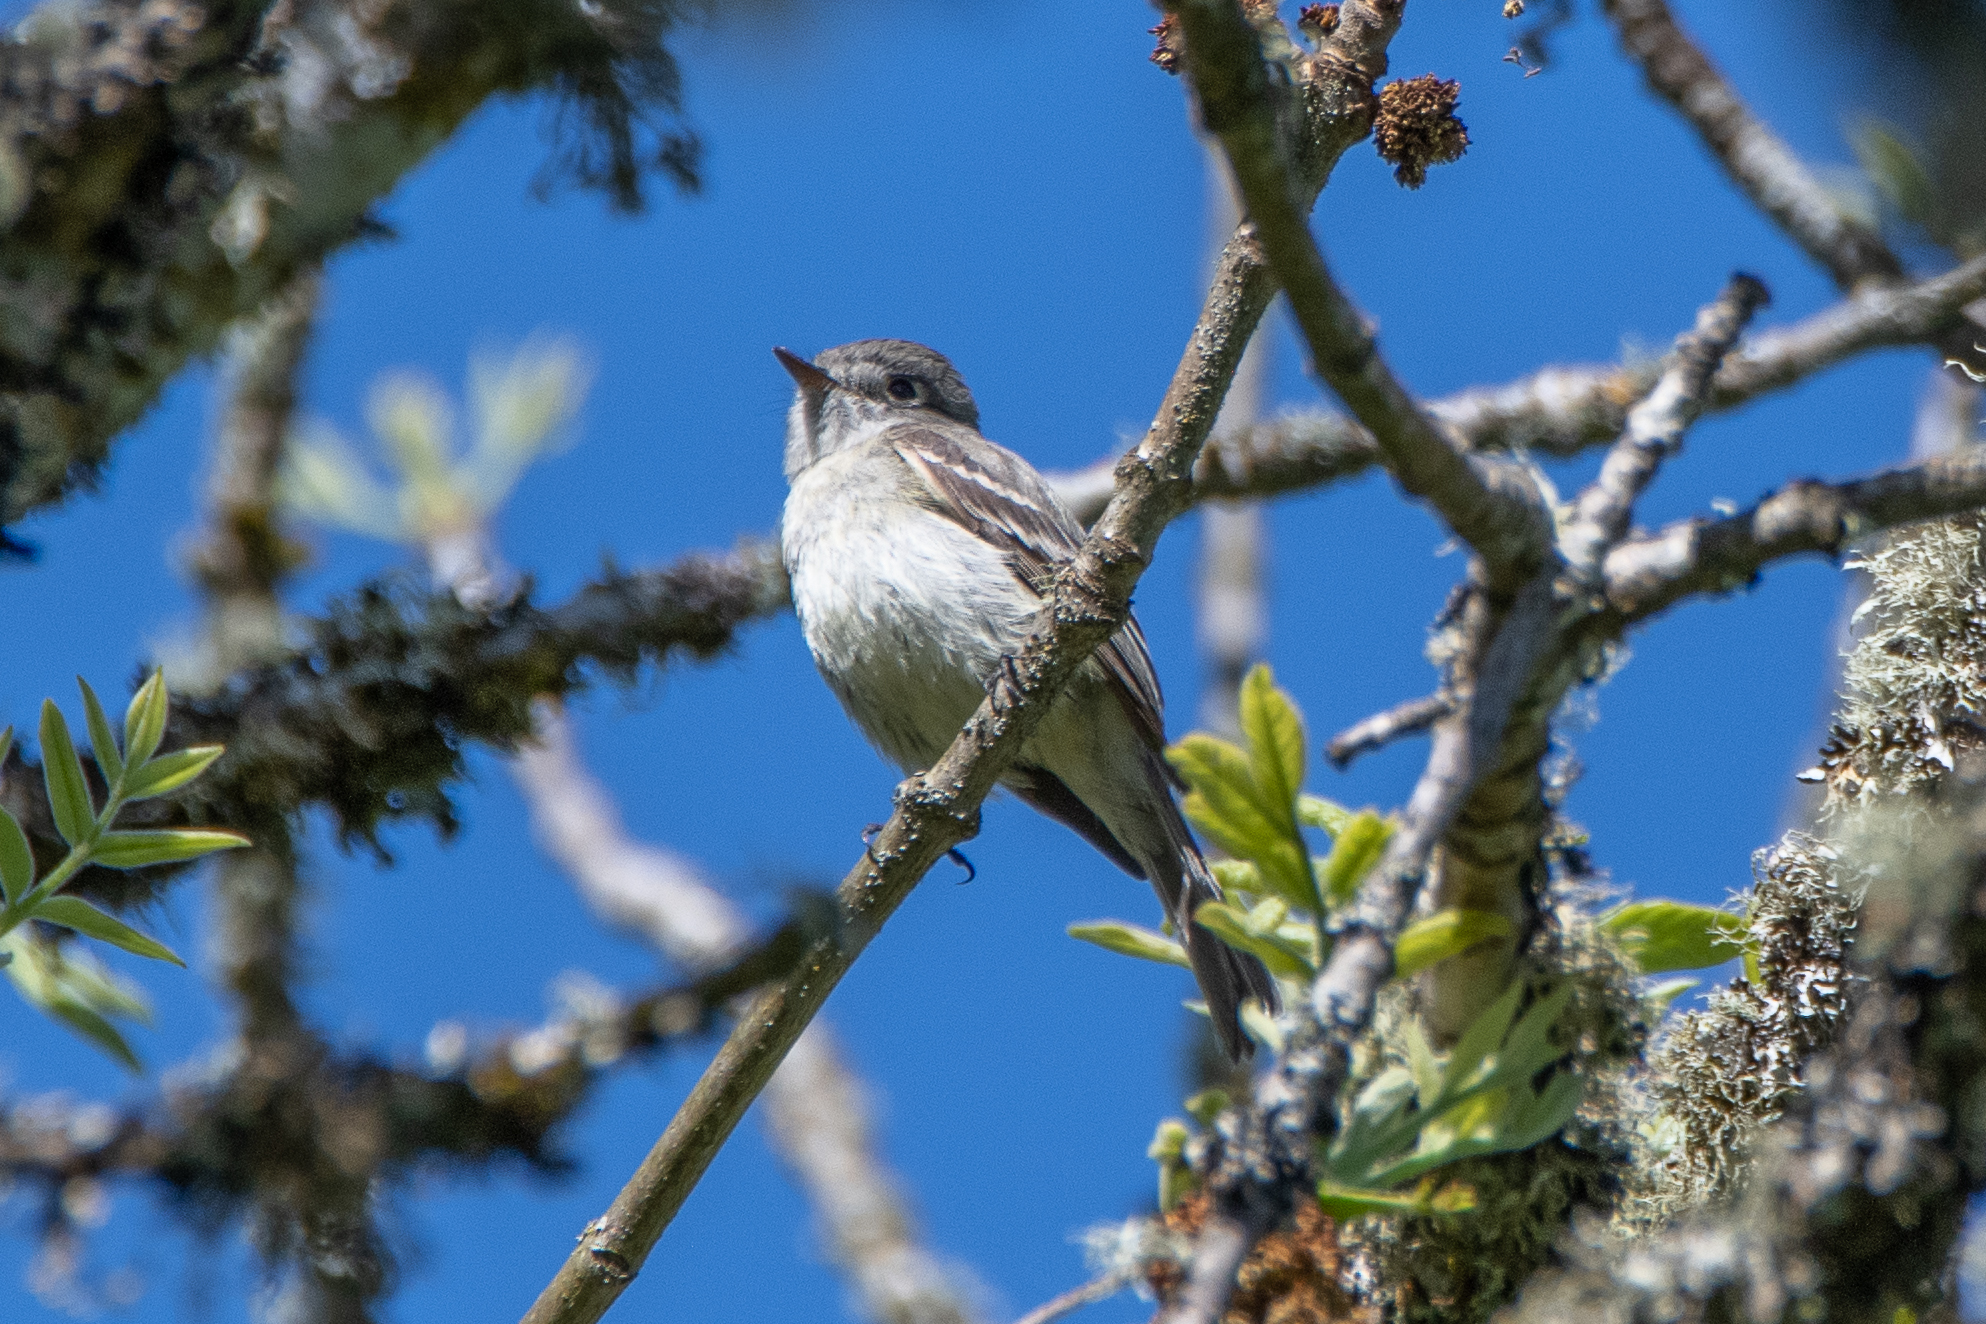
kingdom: Animalia
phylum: Chordata
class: Aves
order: Passeriformes
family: Tyrannidae
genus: Empidonax
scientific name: Empidonax oberholseri
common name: Dusky flycatcher
